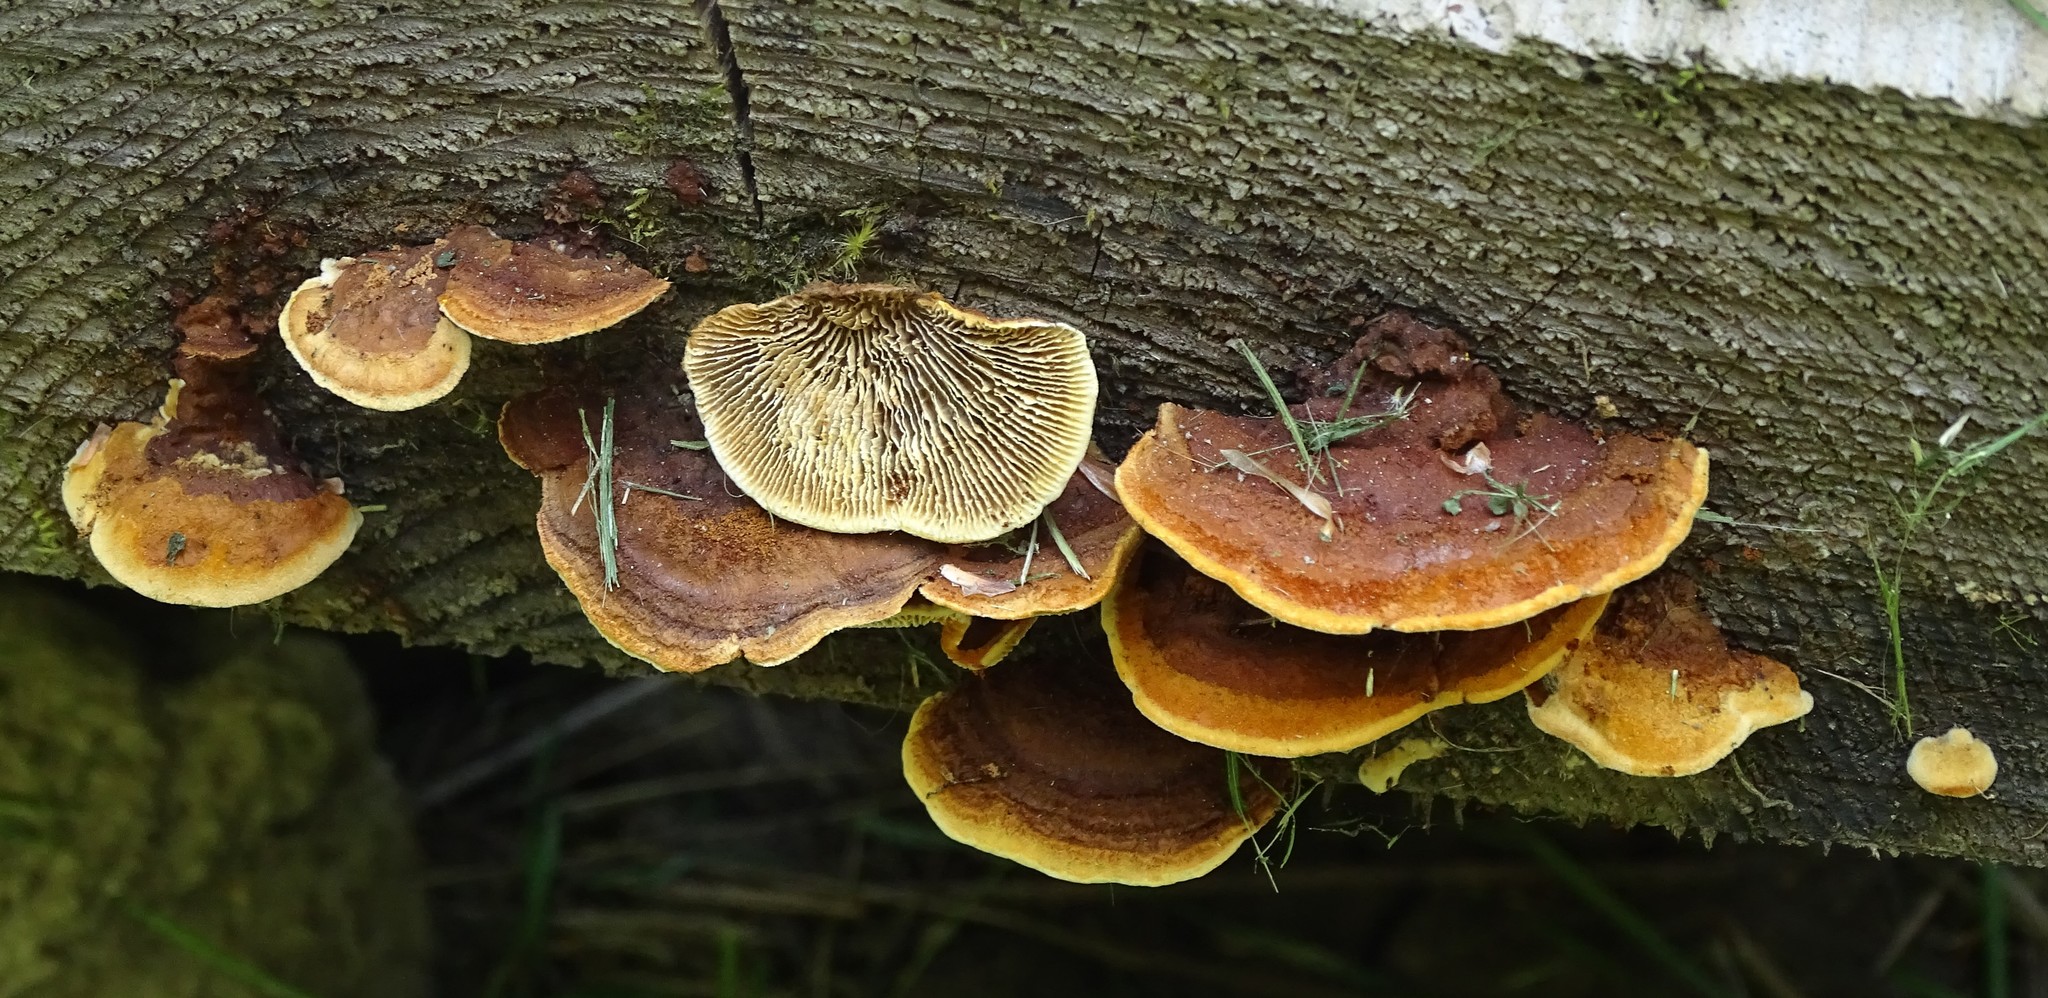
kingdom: Fungi
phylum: Basidiomycota
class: Agaricomycetes
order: Gloeophyllales
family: Gloeophyllaceae
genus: Gloeophyllum
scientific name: Gloeophyllum sepiarium
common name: Conifer mazegill
